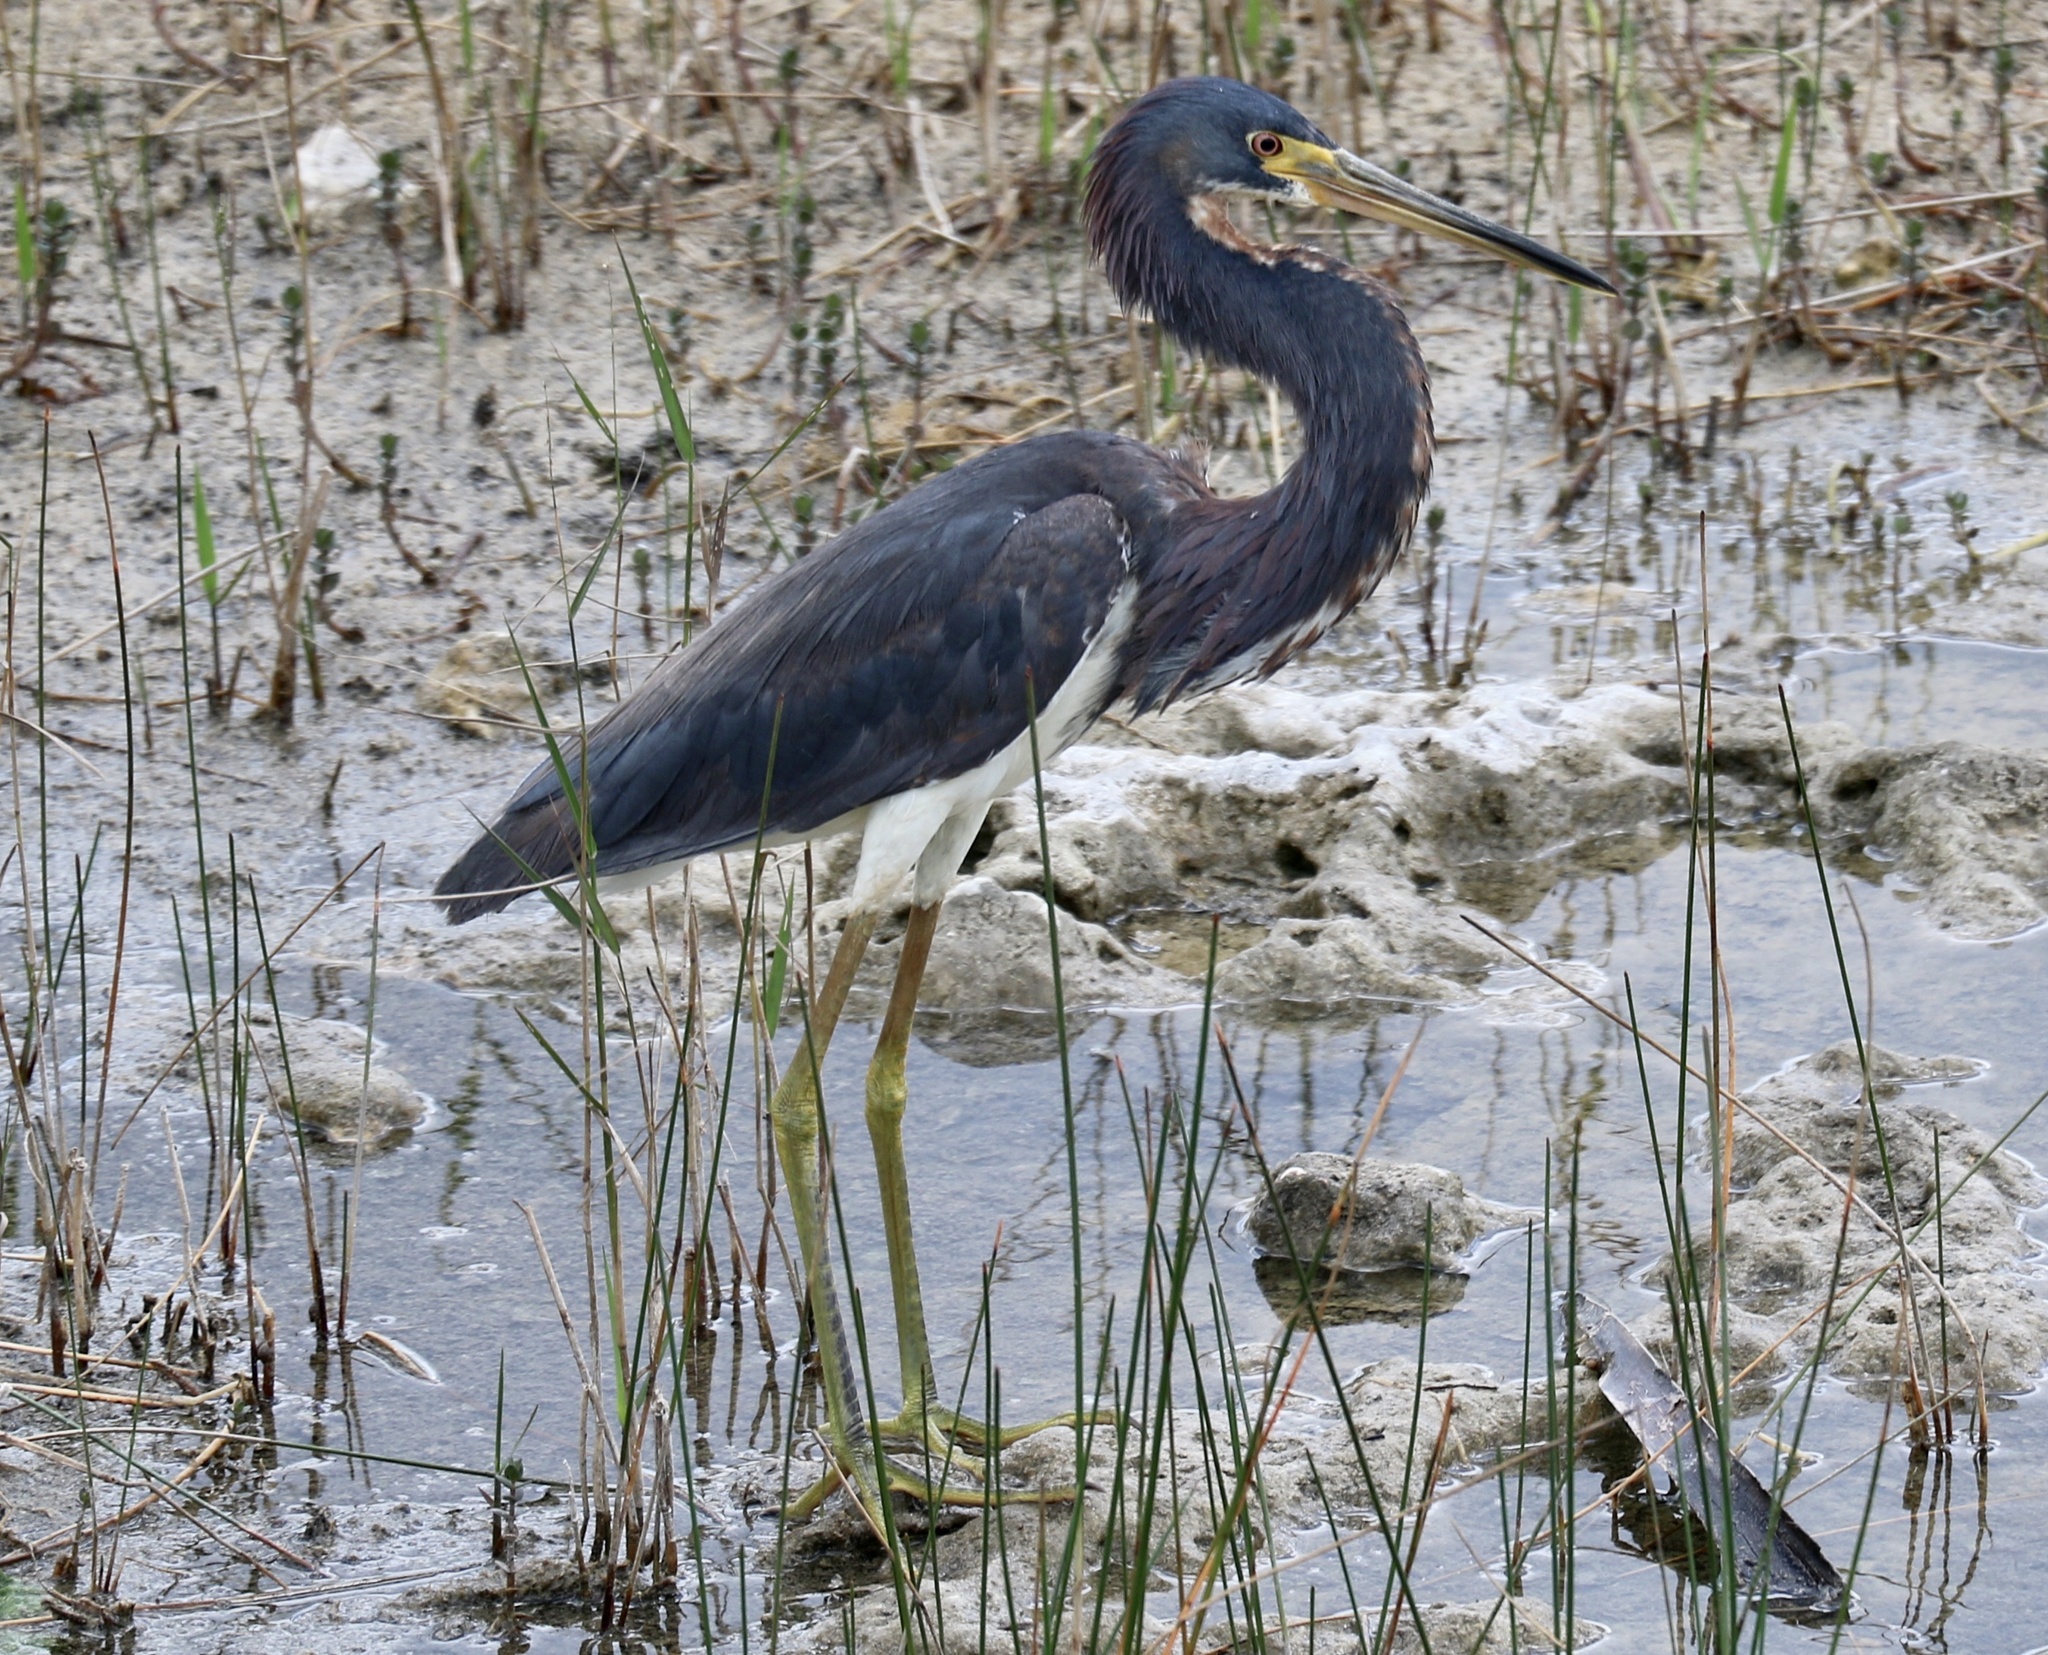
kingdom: Animalia
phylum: Chordata
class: Aves
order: Pelecaniformes
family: Ardeidae
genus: Egretta
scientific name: Egretta tricolor
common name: Tricolored heron
